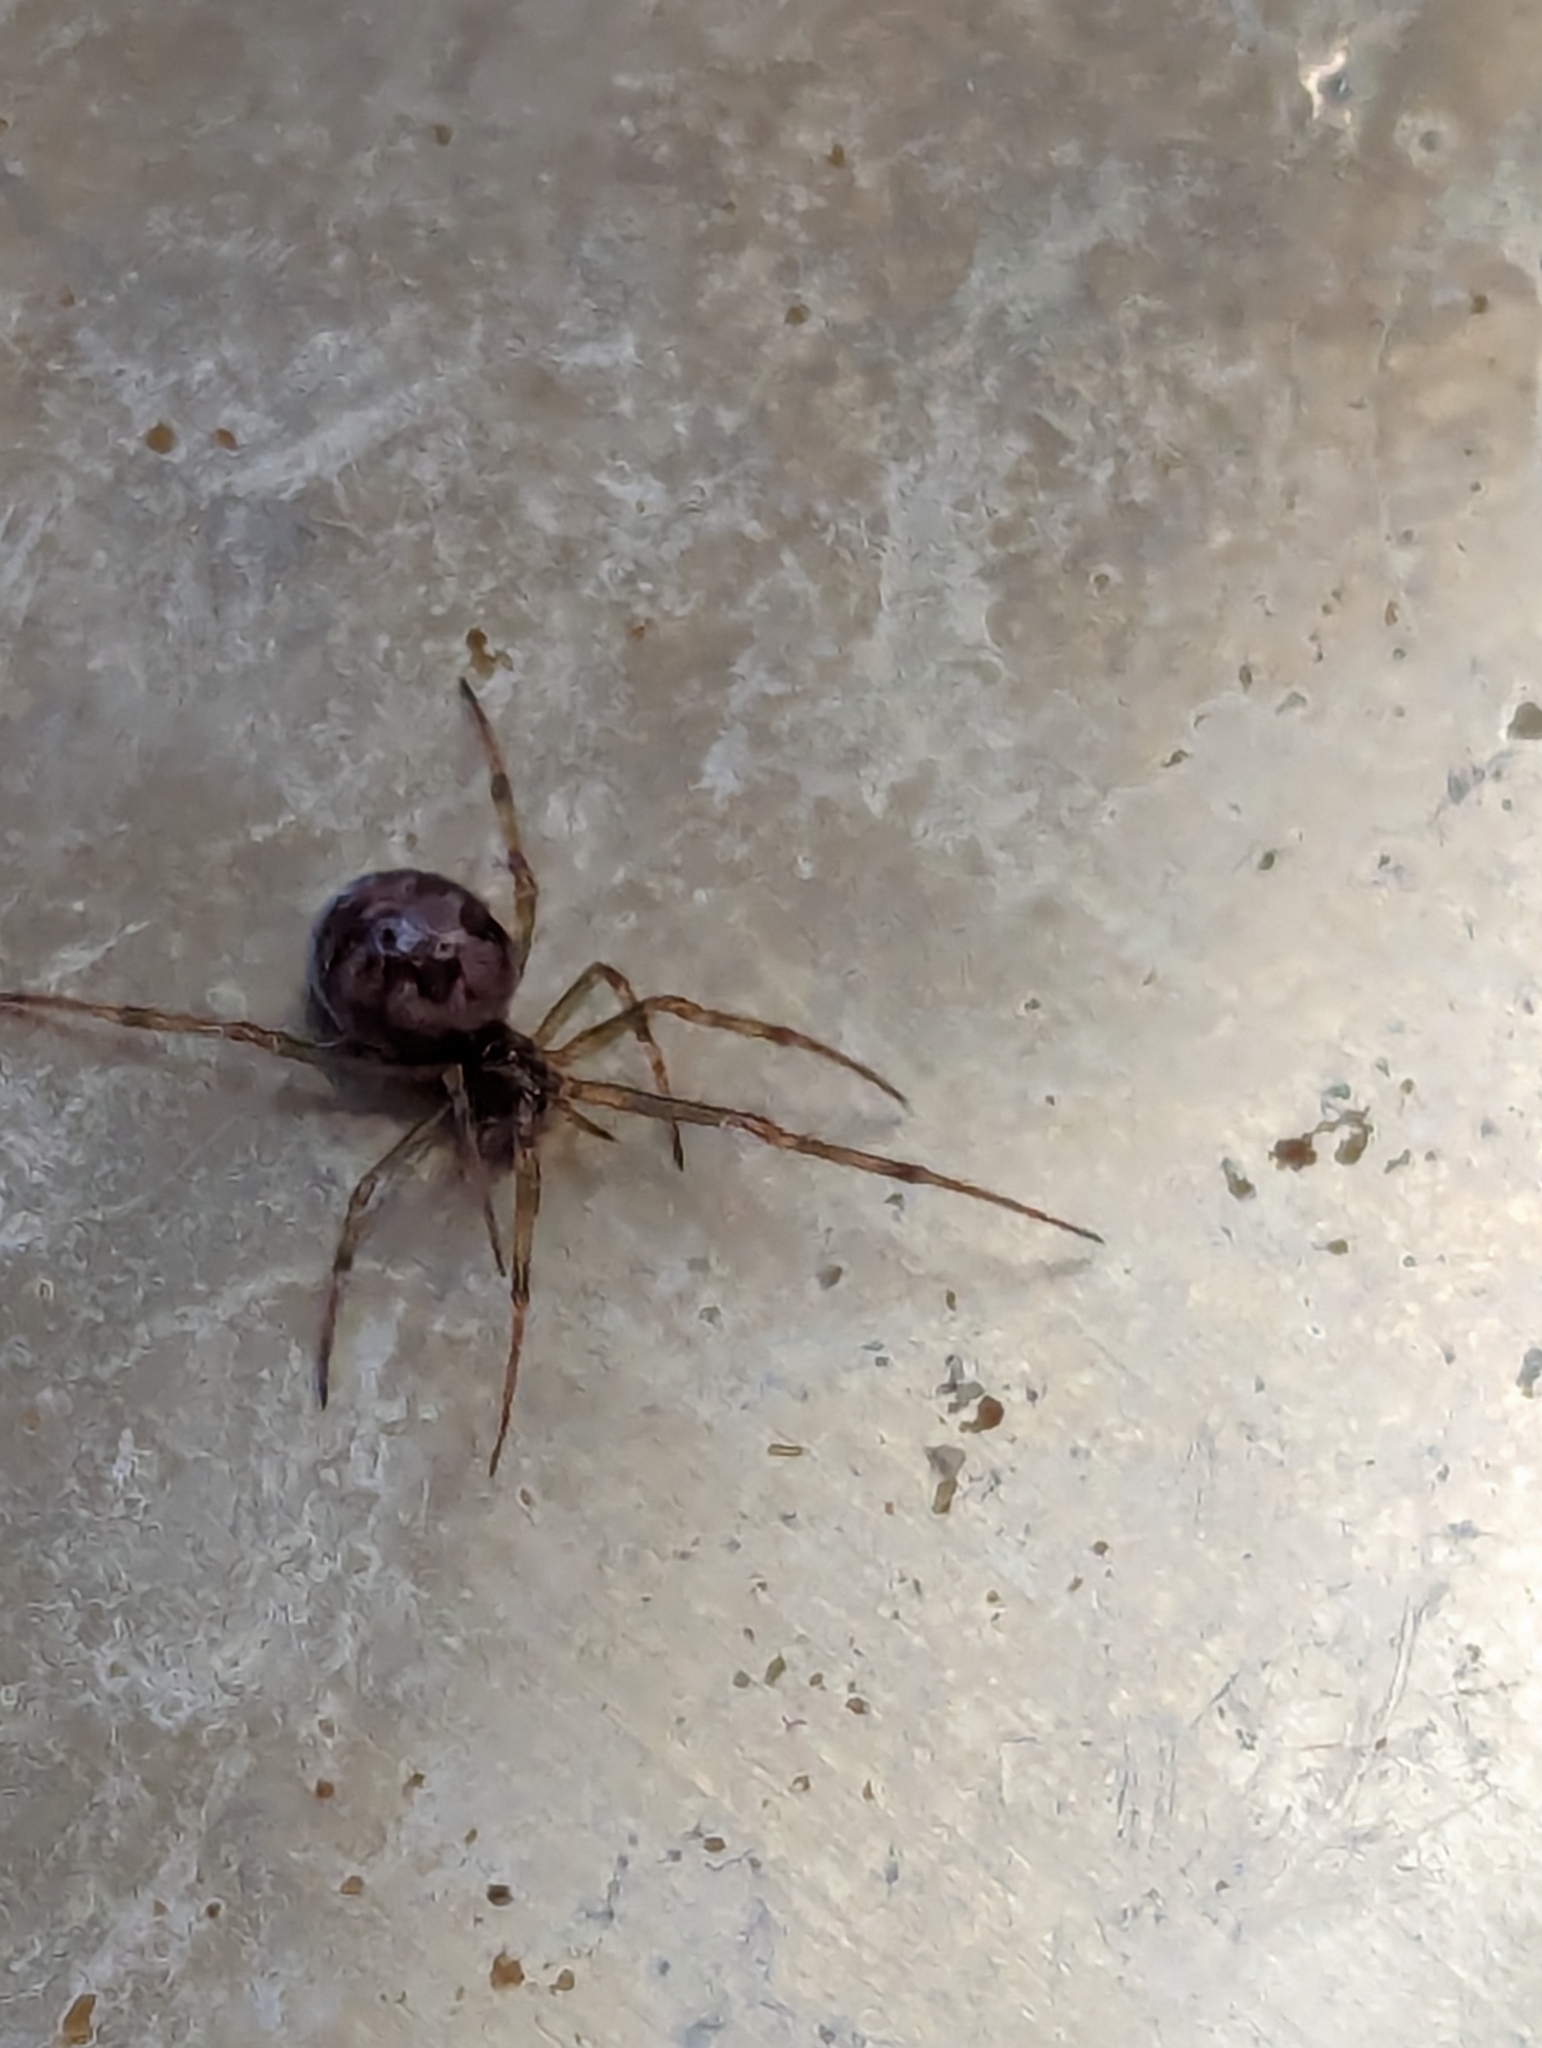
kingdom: Animalia
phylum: Arthropoda
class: Arachnida
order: Araneae
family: Theridiidae
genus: Steatoda
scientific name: Steatoda triangulosa
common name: Triangulate bud spider
